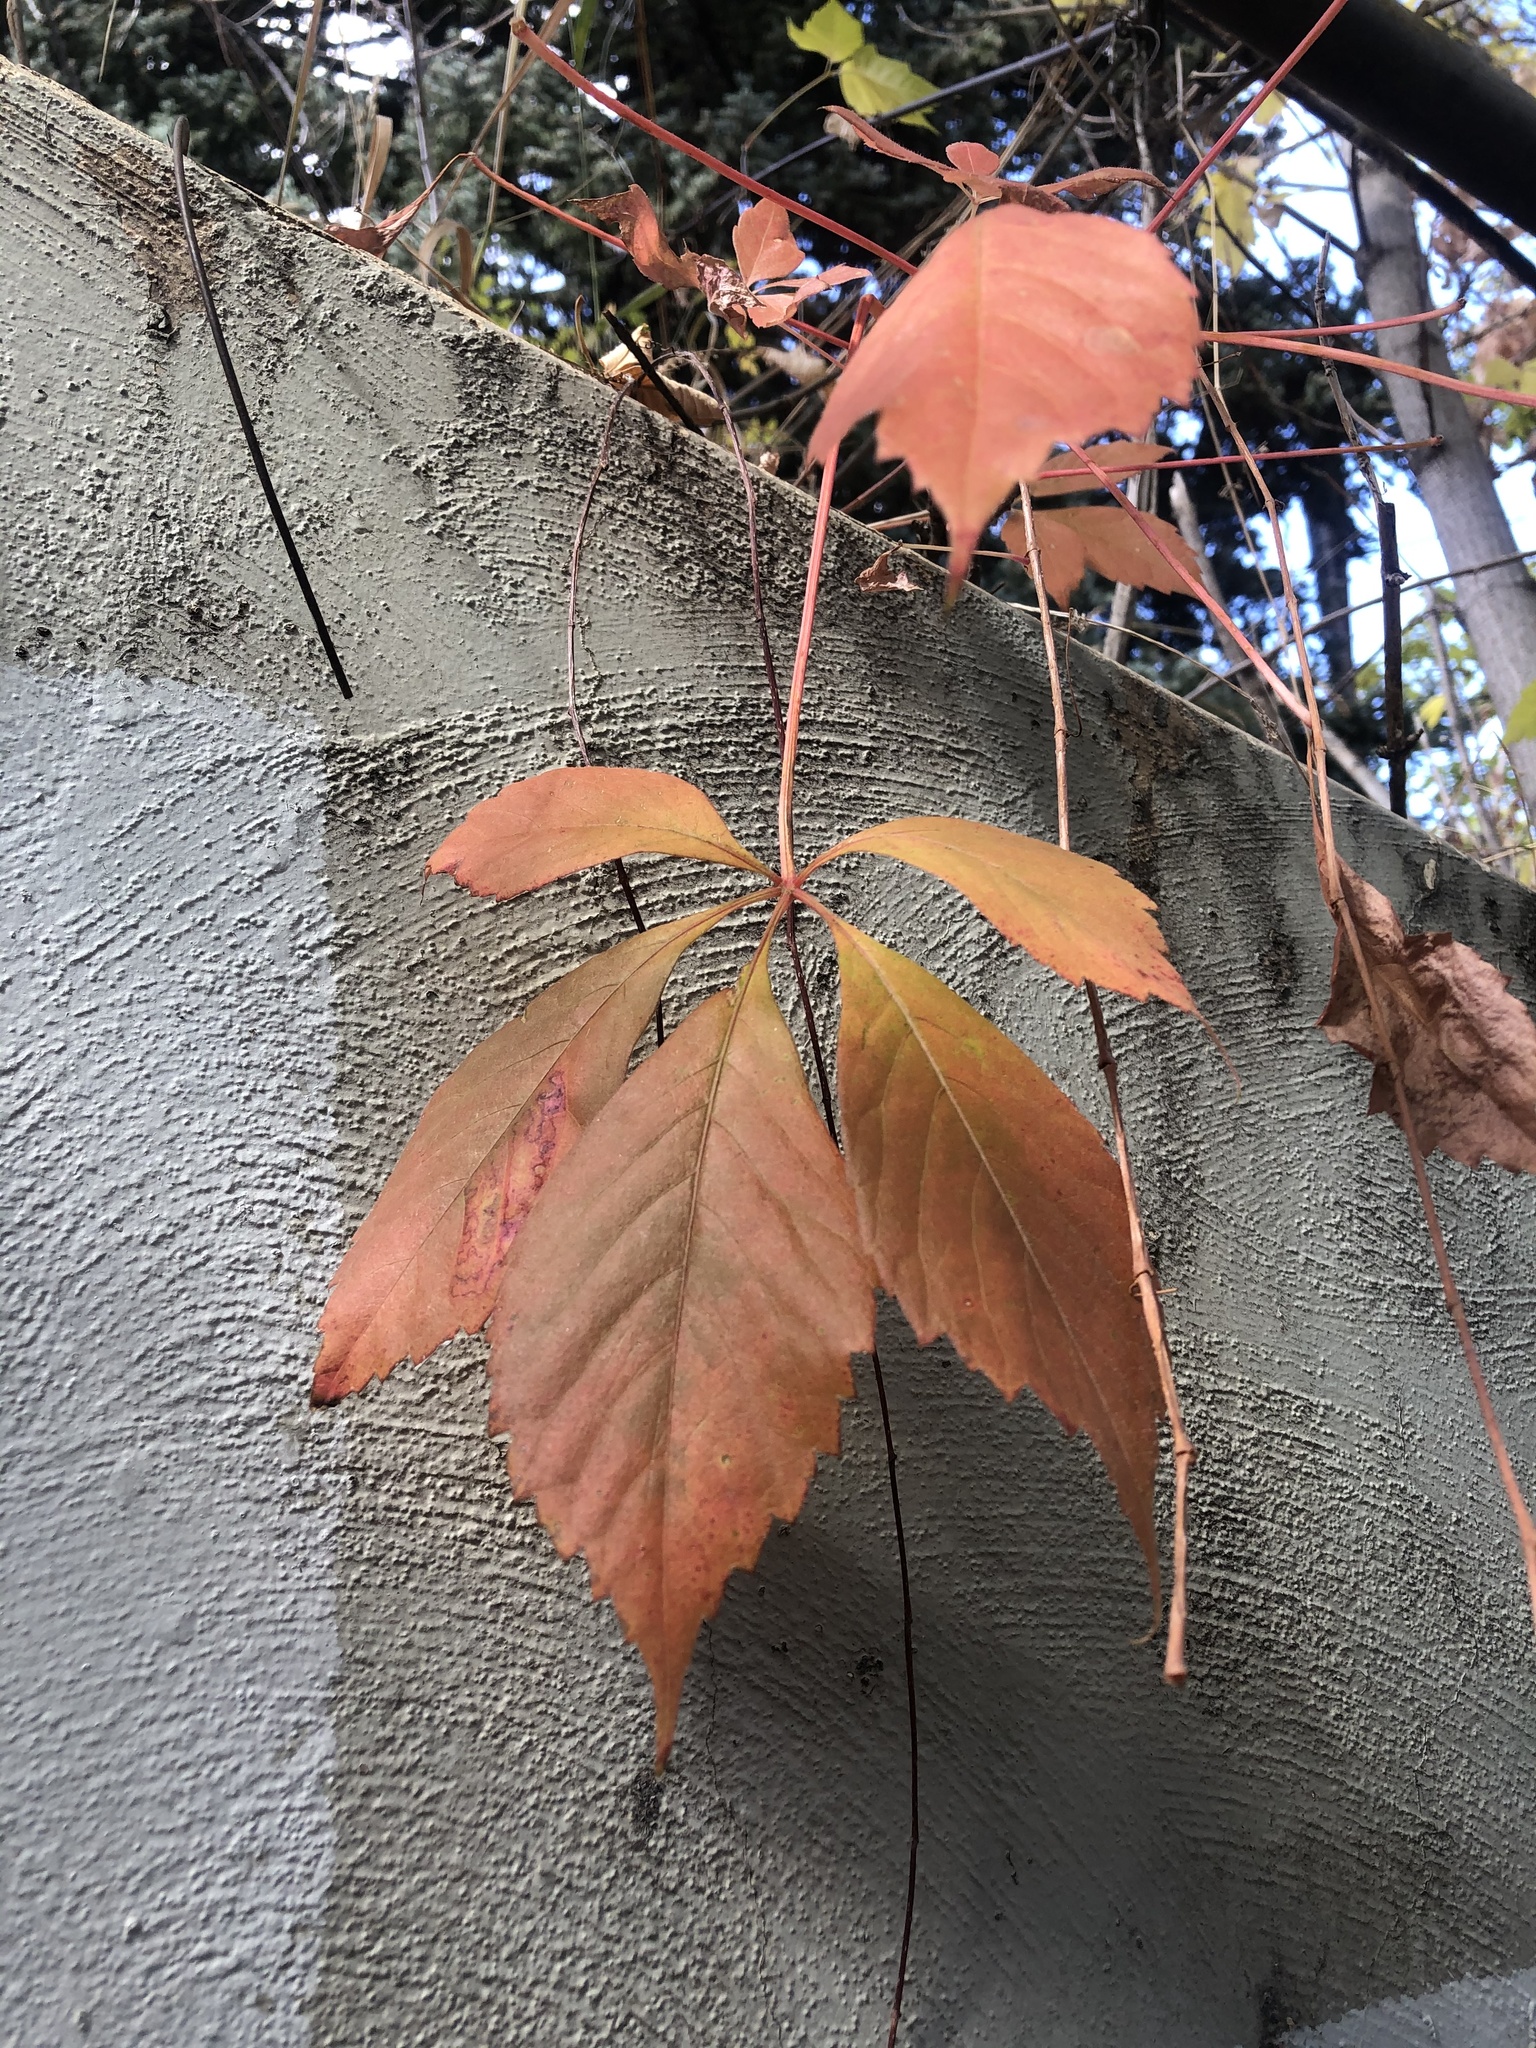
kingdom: Plantae
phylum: Tracheophyta
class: Magnoliopsida
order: Vitales
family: Vitaceae
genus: Parthenocissus
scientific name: Parthenocissus quinquefolia
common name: Virginia-creeper
